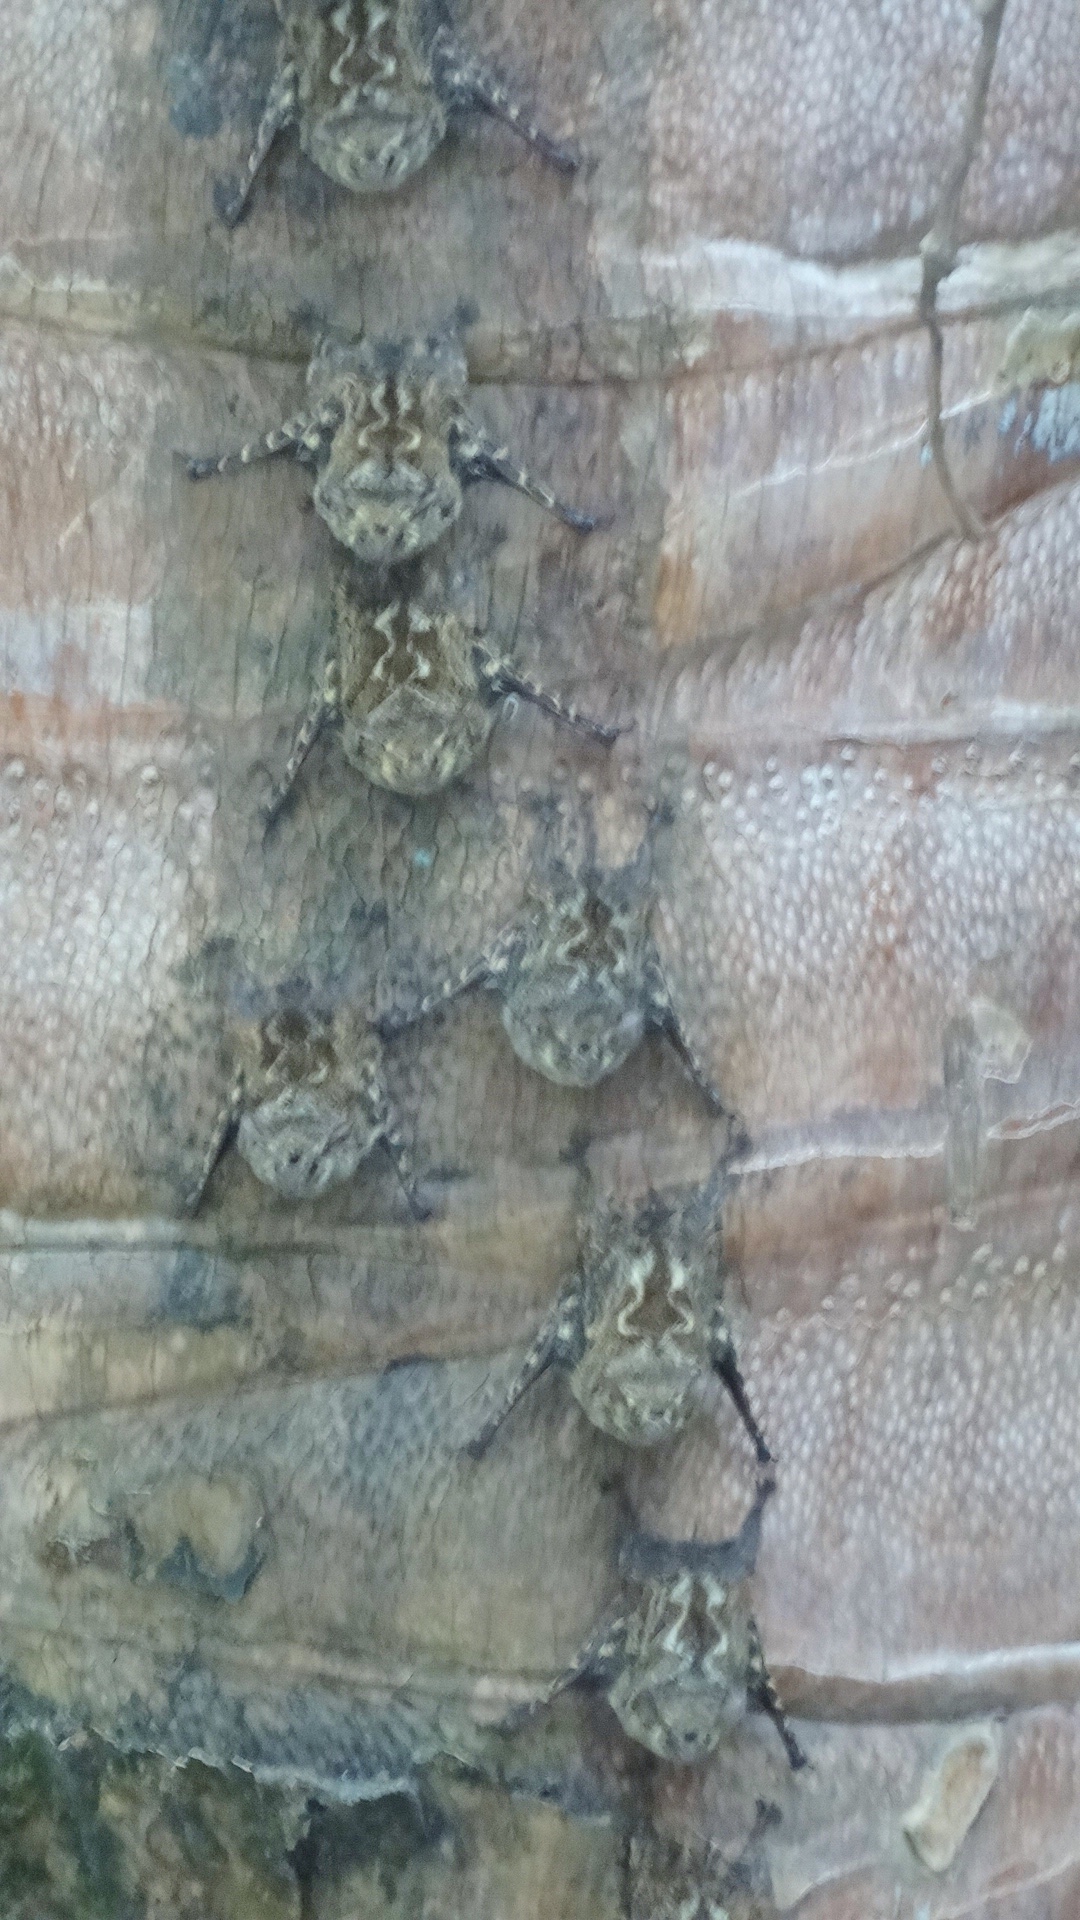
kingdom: Animalia
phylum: Chordata
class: Mammalia
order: Chiroptera
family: Emballonuridae
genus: Rhynchonycteris
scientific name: Rhynchonycteris naso
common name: Proboscis bat
